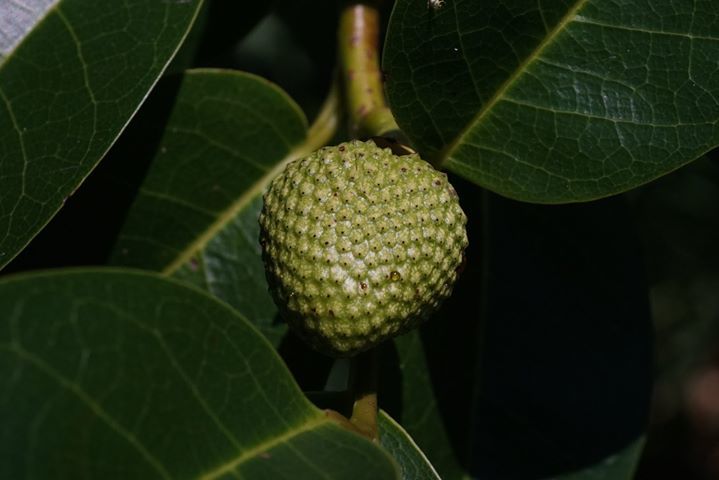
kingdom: Plantae
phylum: Tracheophyta
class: Magnoliopsida
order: Magnoliales
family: Annonaceae
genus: Annona
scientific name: Annona glabra
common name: Monkey apple
